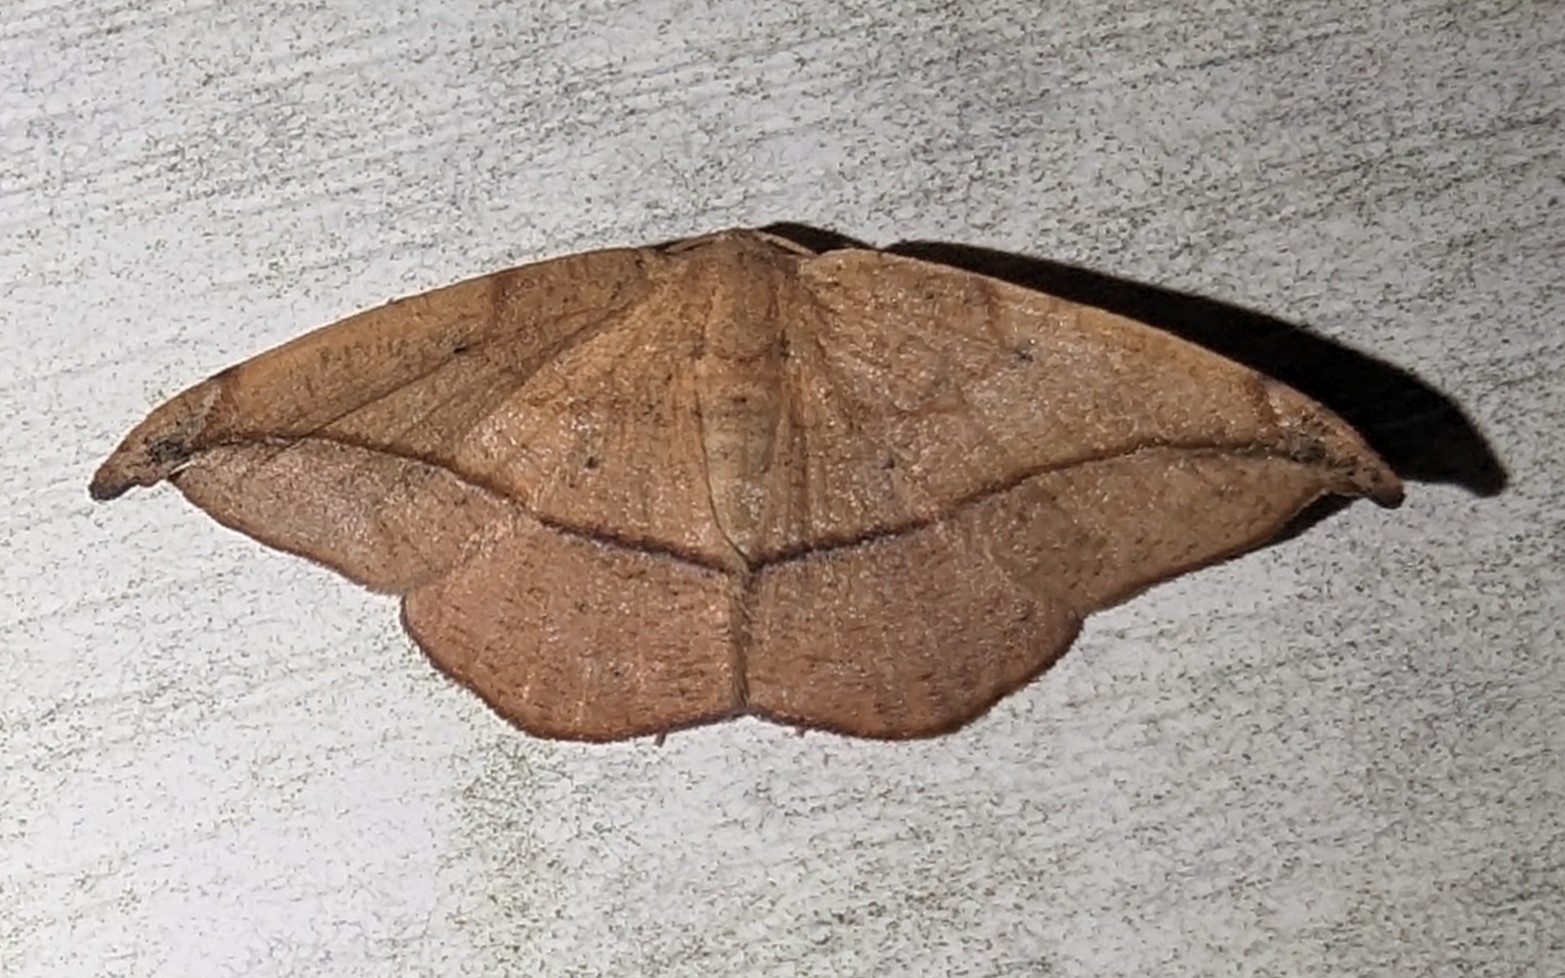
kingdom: Animalia
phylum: Arthropoda
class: Insecta
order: Lepidoptera
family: Geometridae
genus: Patalene
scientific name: Patalene olyzonaria
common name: Juniper geometer moth
